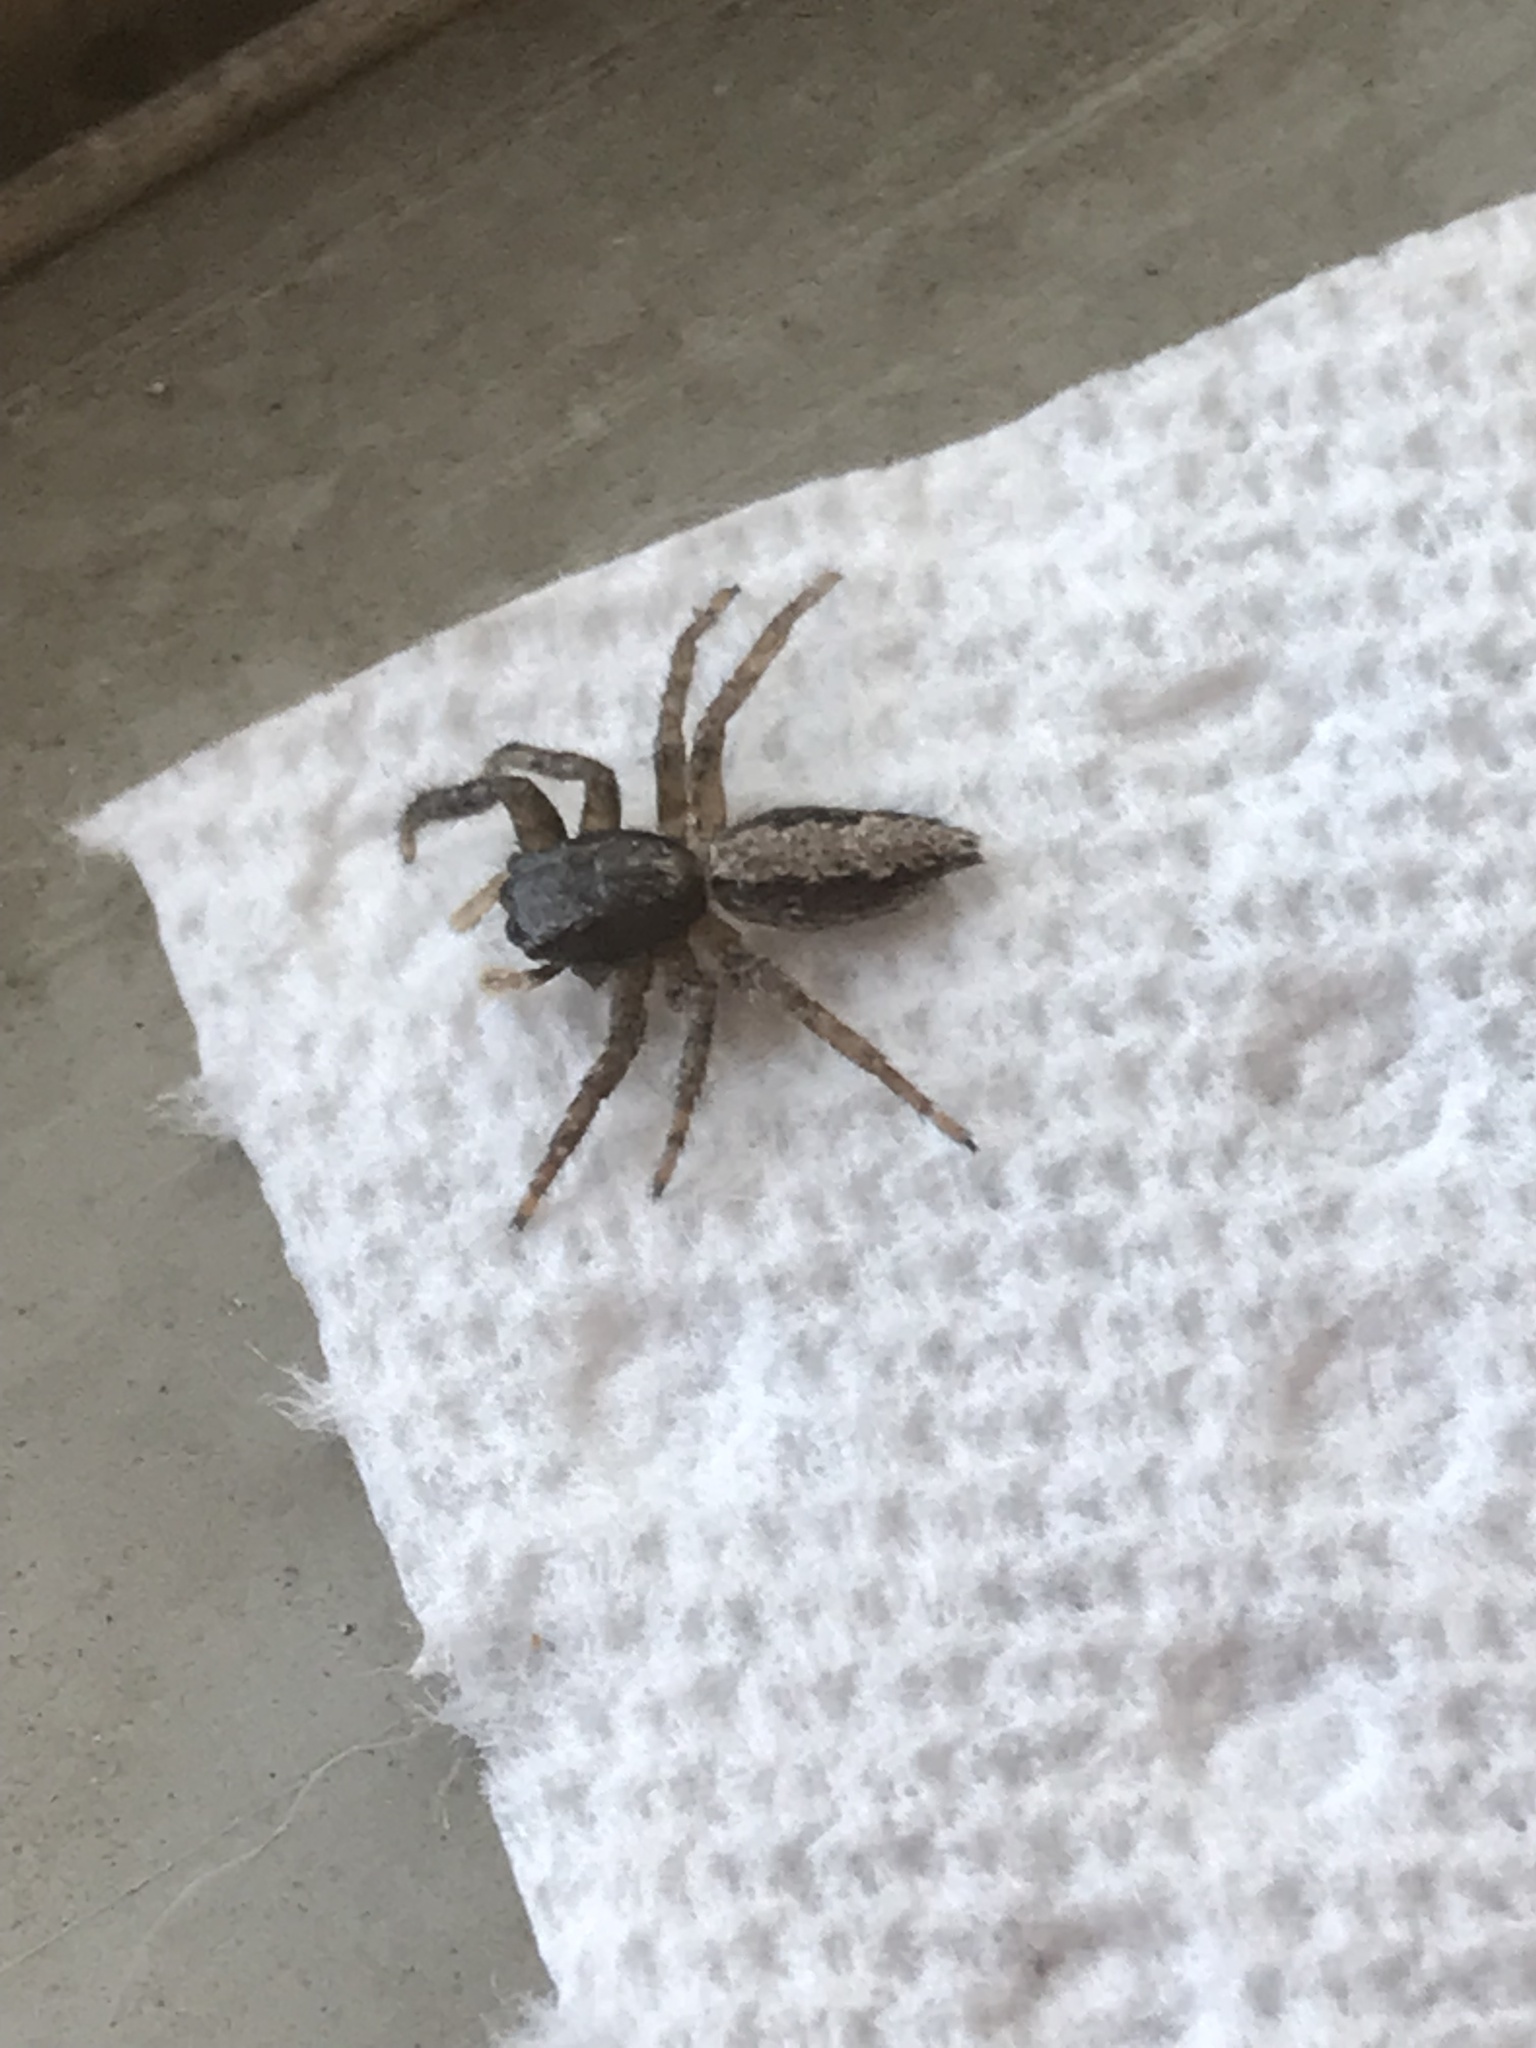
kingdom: Animalia
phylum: Arthropoda
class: Arachnida
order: Araneae
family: Salticidae
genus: Platycryptus
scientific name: Platycryptus californicus
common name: Jumping spiders
